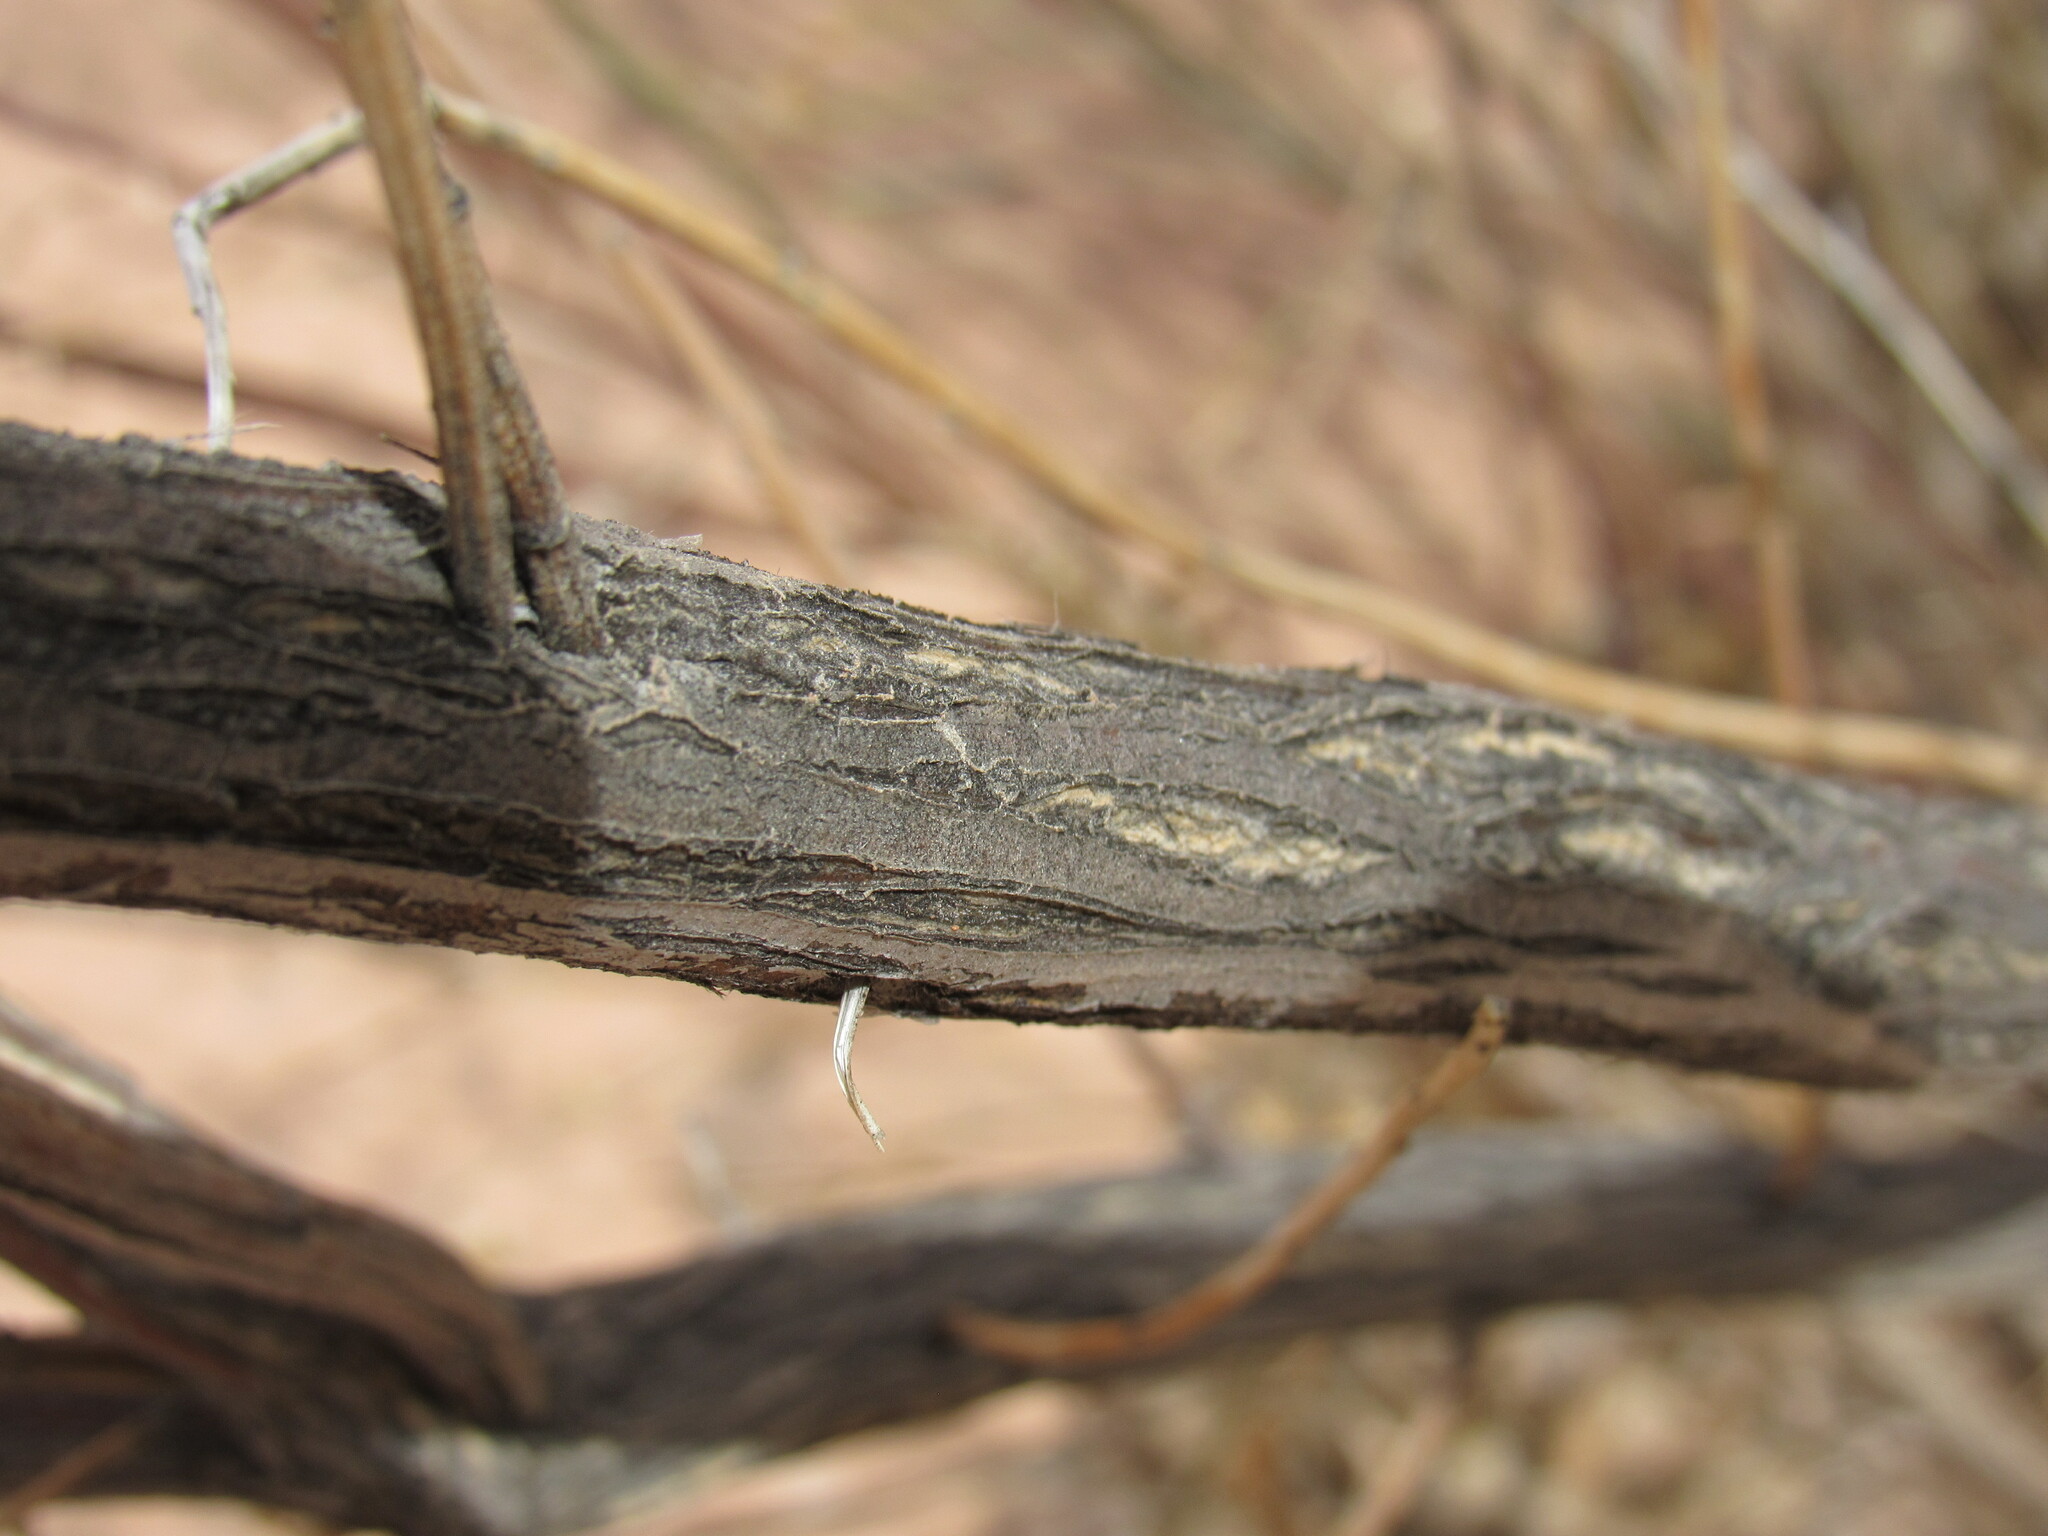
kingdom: Plantae
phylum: Tracheophyta
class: Magnoliopsida
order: Asterales
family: Asteraceae
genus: Baccharis
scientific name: Baccharis salicina
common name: Willow baccharis
